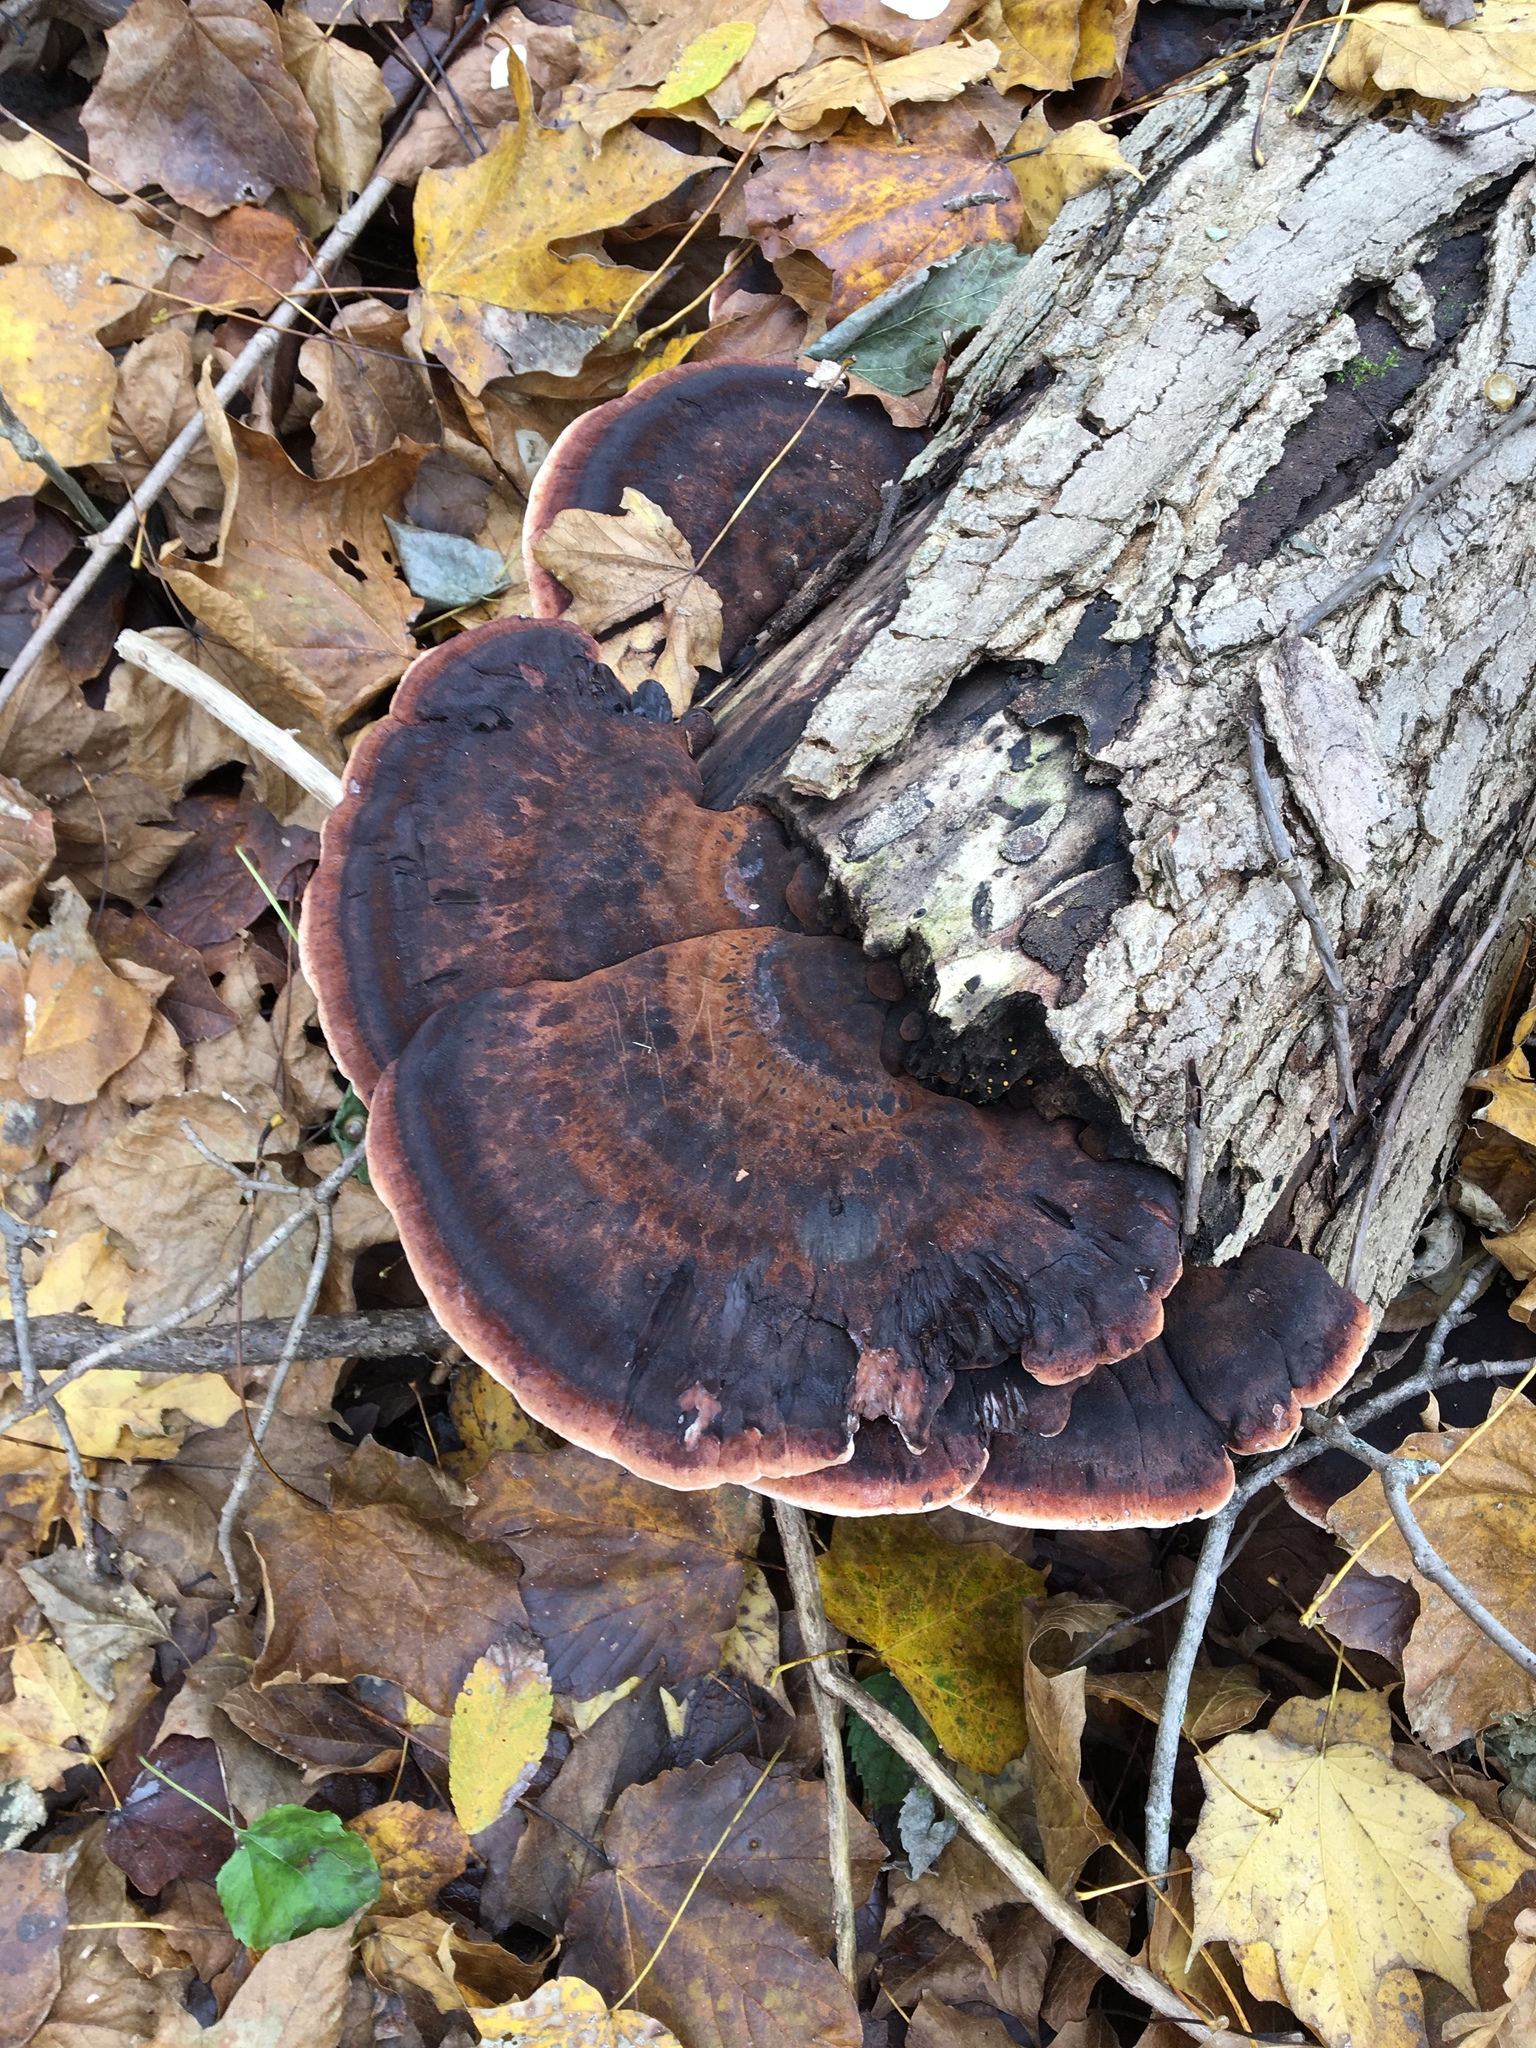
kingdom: Fungi
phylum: Basidiomycota
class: Agaricomycetes
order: Polyporales
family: Ischnodermataceae
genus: Ischnoderma
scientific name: Ischnoderma resinosum
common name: Resinous polypore
